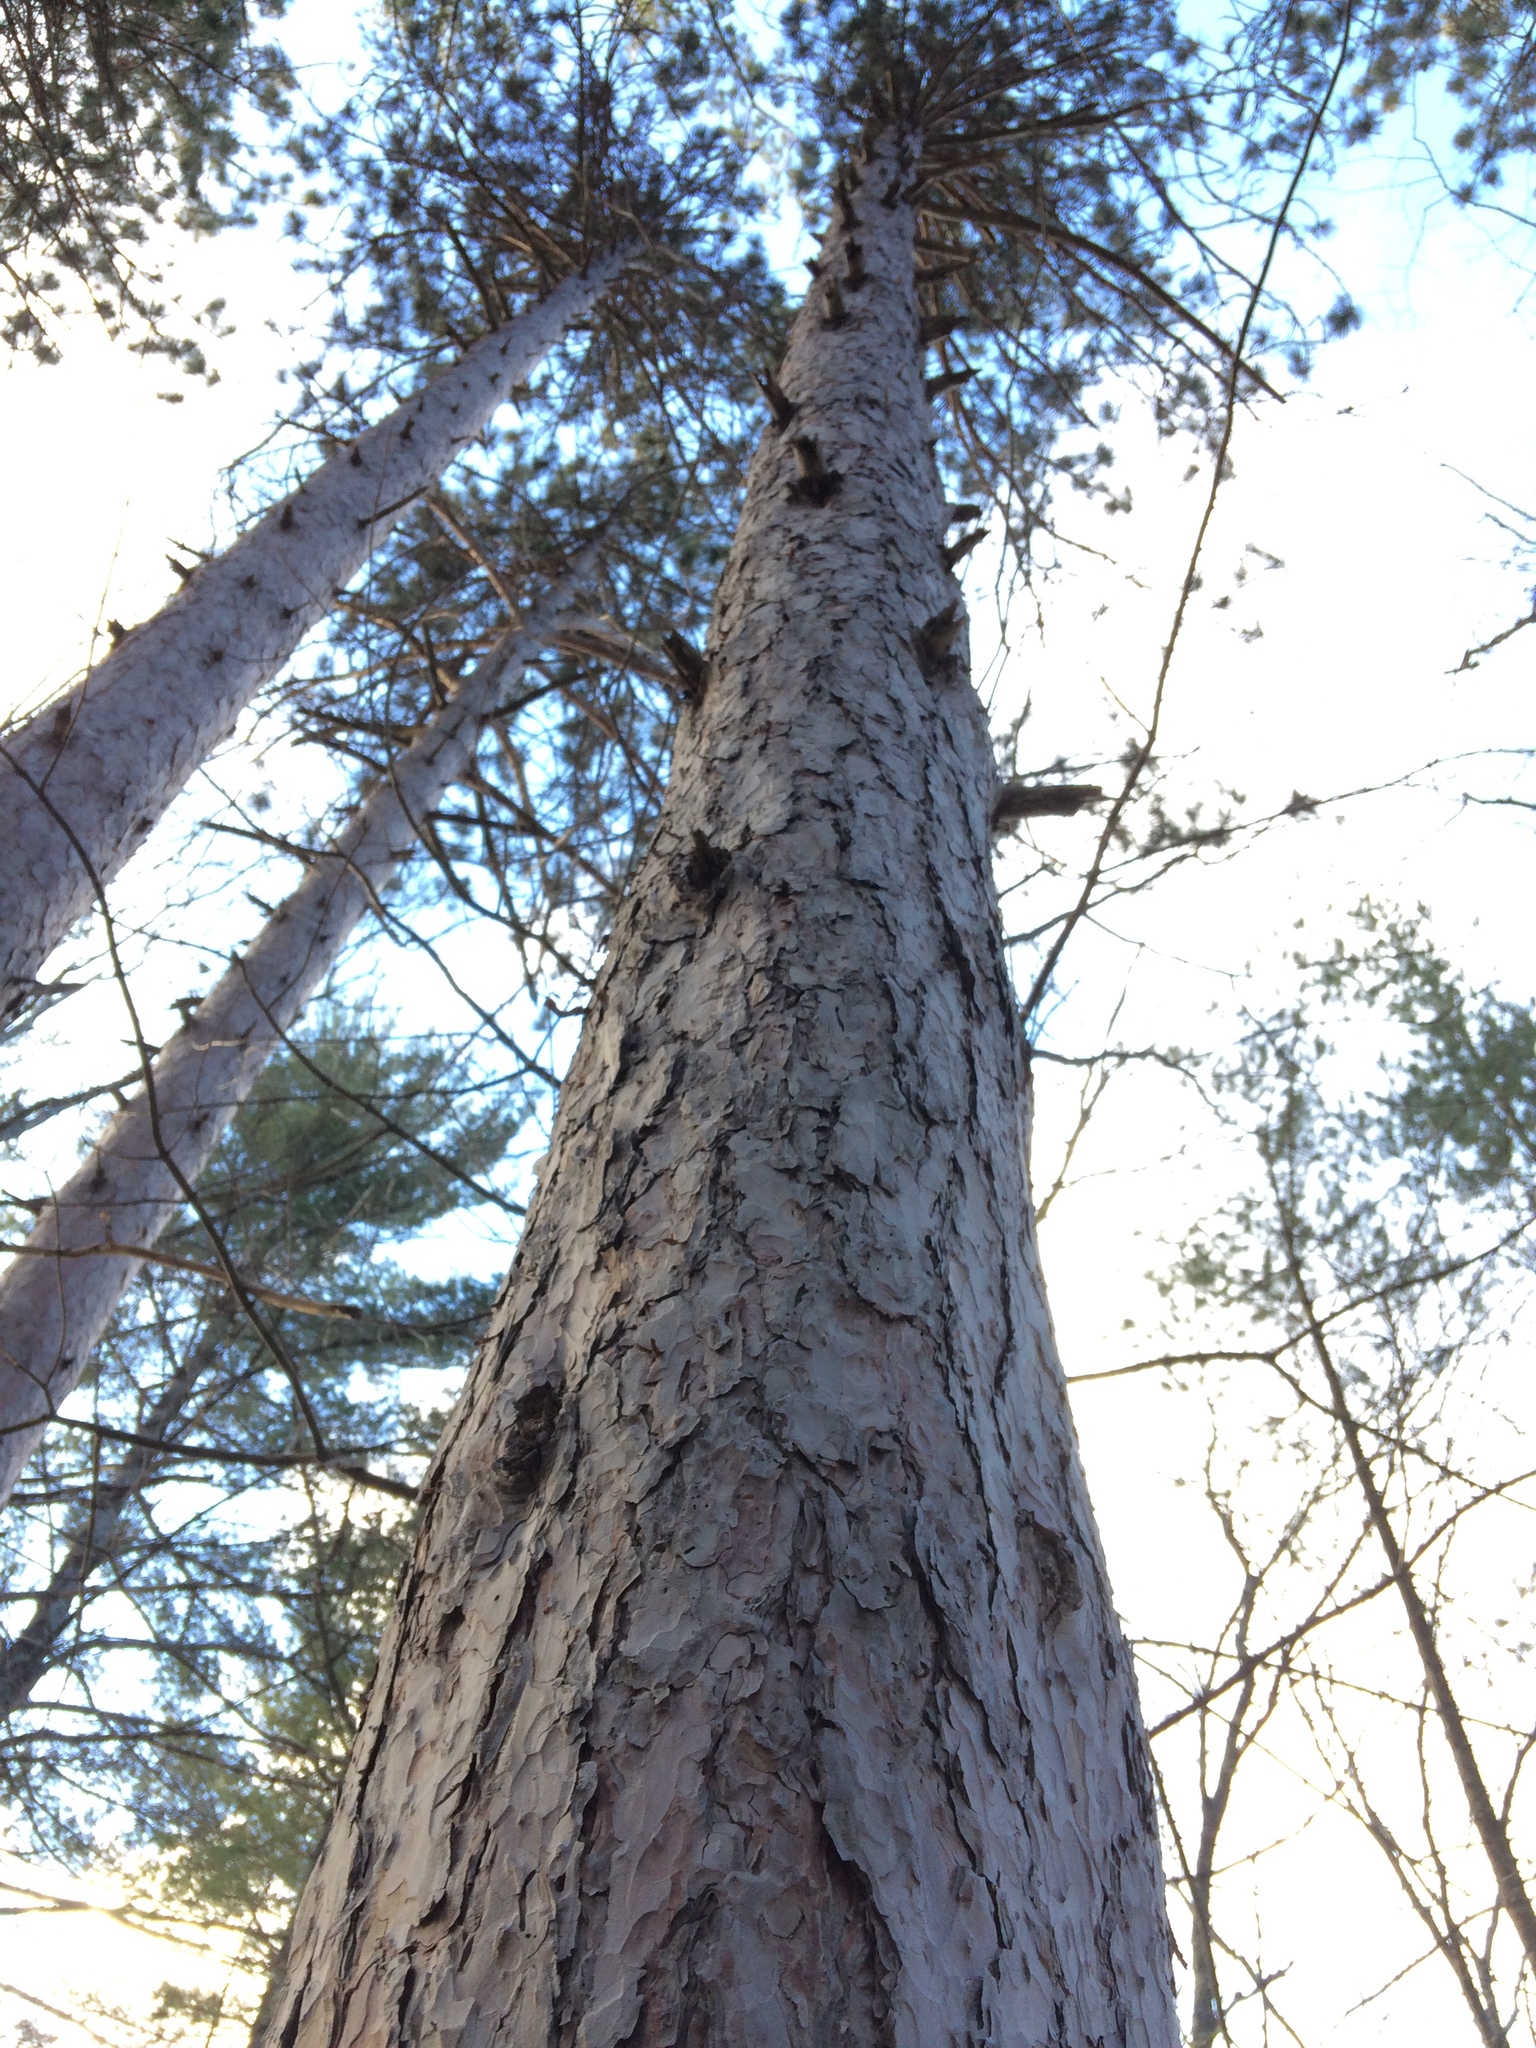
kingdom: Plantae
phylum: Tracheophyta
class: Pinopsida
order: Pinales
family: Pinaceae
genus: Pinus
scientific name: Pinus resinosa
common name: Norway pine
